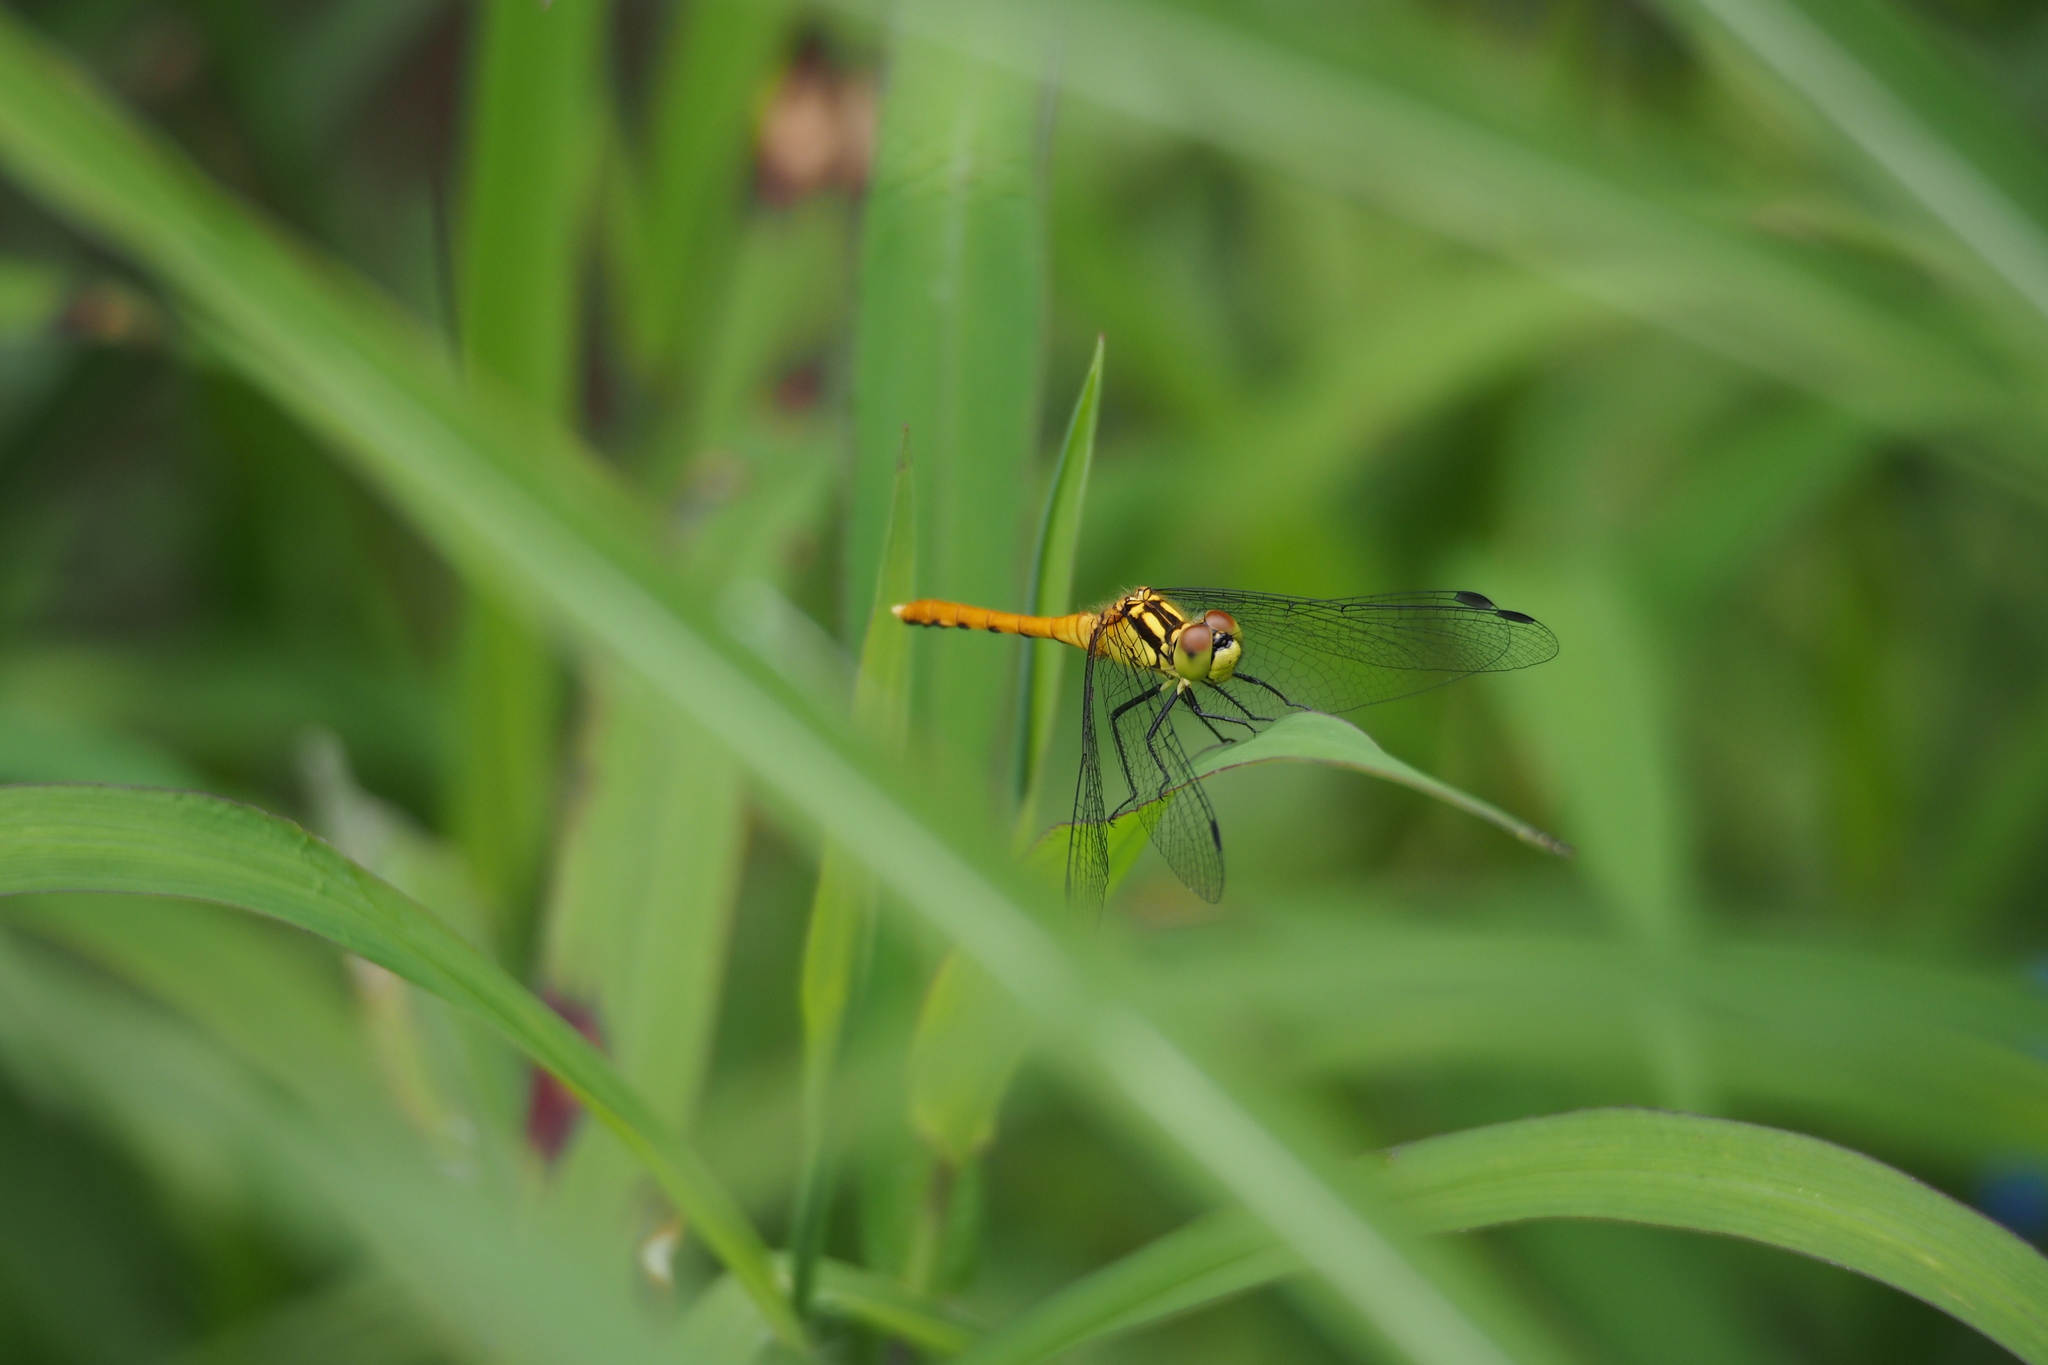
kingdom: Animalia
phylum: Arthropoda
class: Insecta
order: Odonata
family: Libellulidae
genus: Sympetrum
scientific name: Sympetrum parvulum
